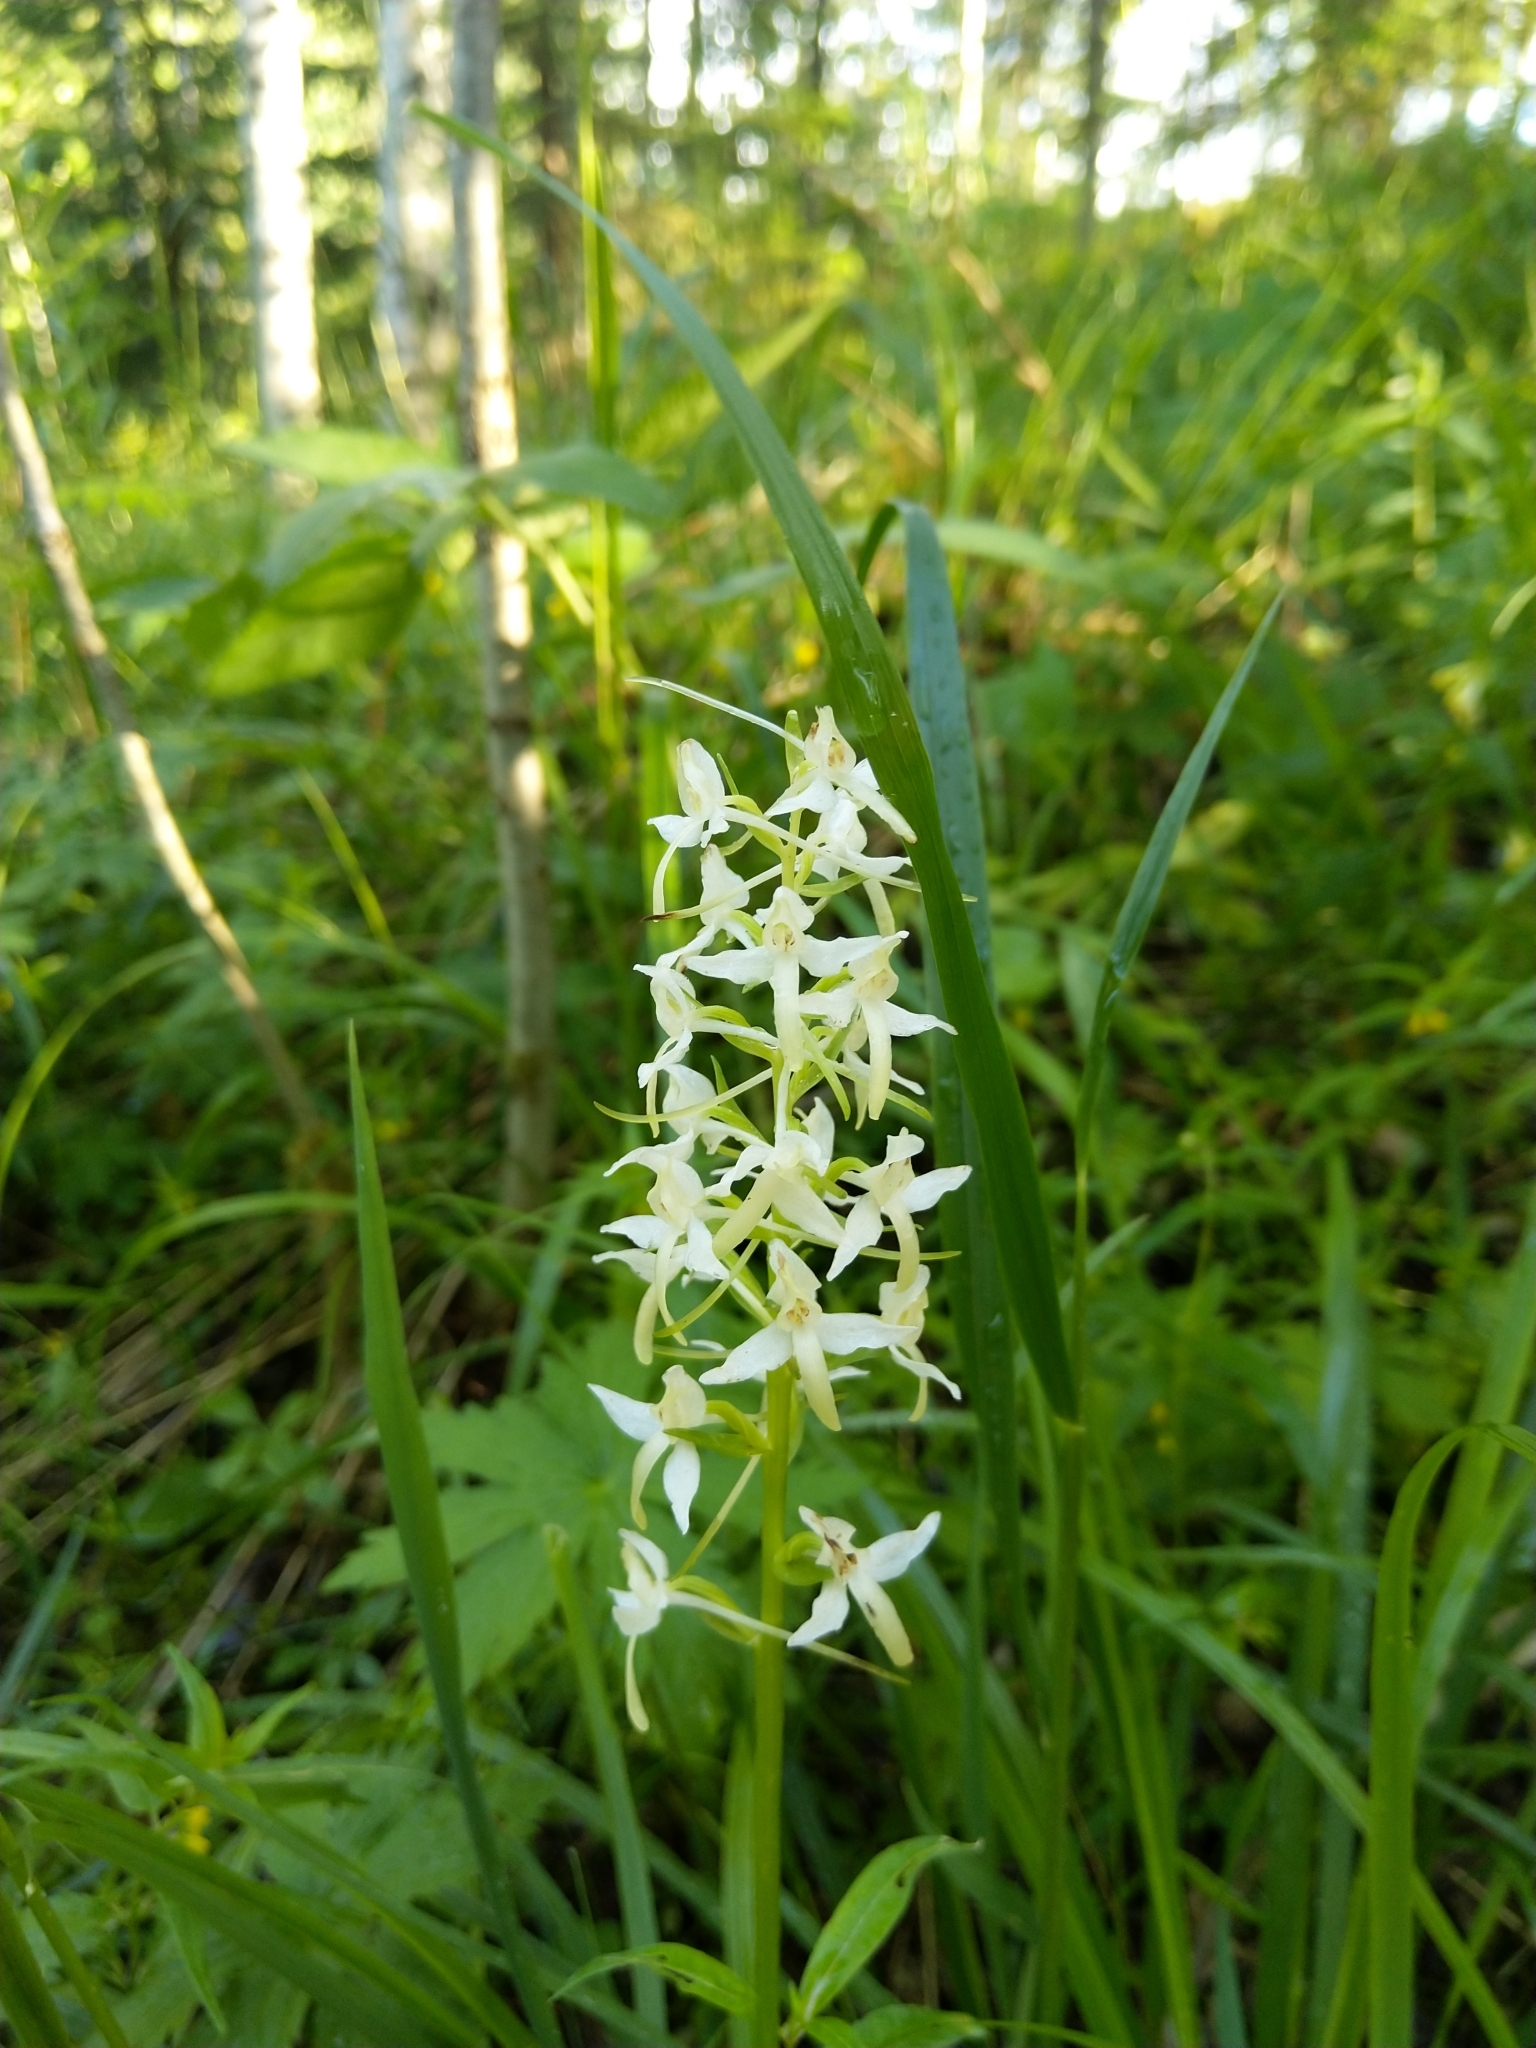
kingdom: Plantae
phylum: Tracheophyta
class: Liliopsida
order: Asparagales
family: Orchidaceae
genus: Platanthera
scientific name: Platanthera bifolia
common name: Lesser butterfly-orchid
